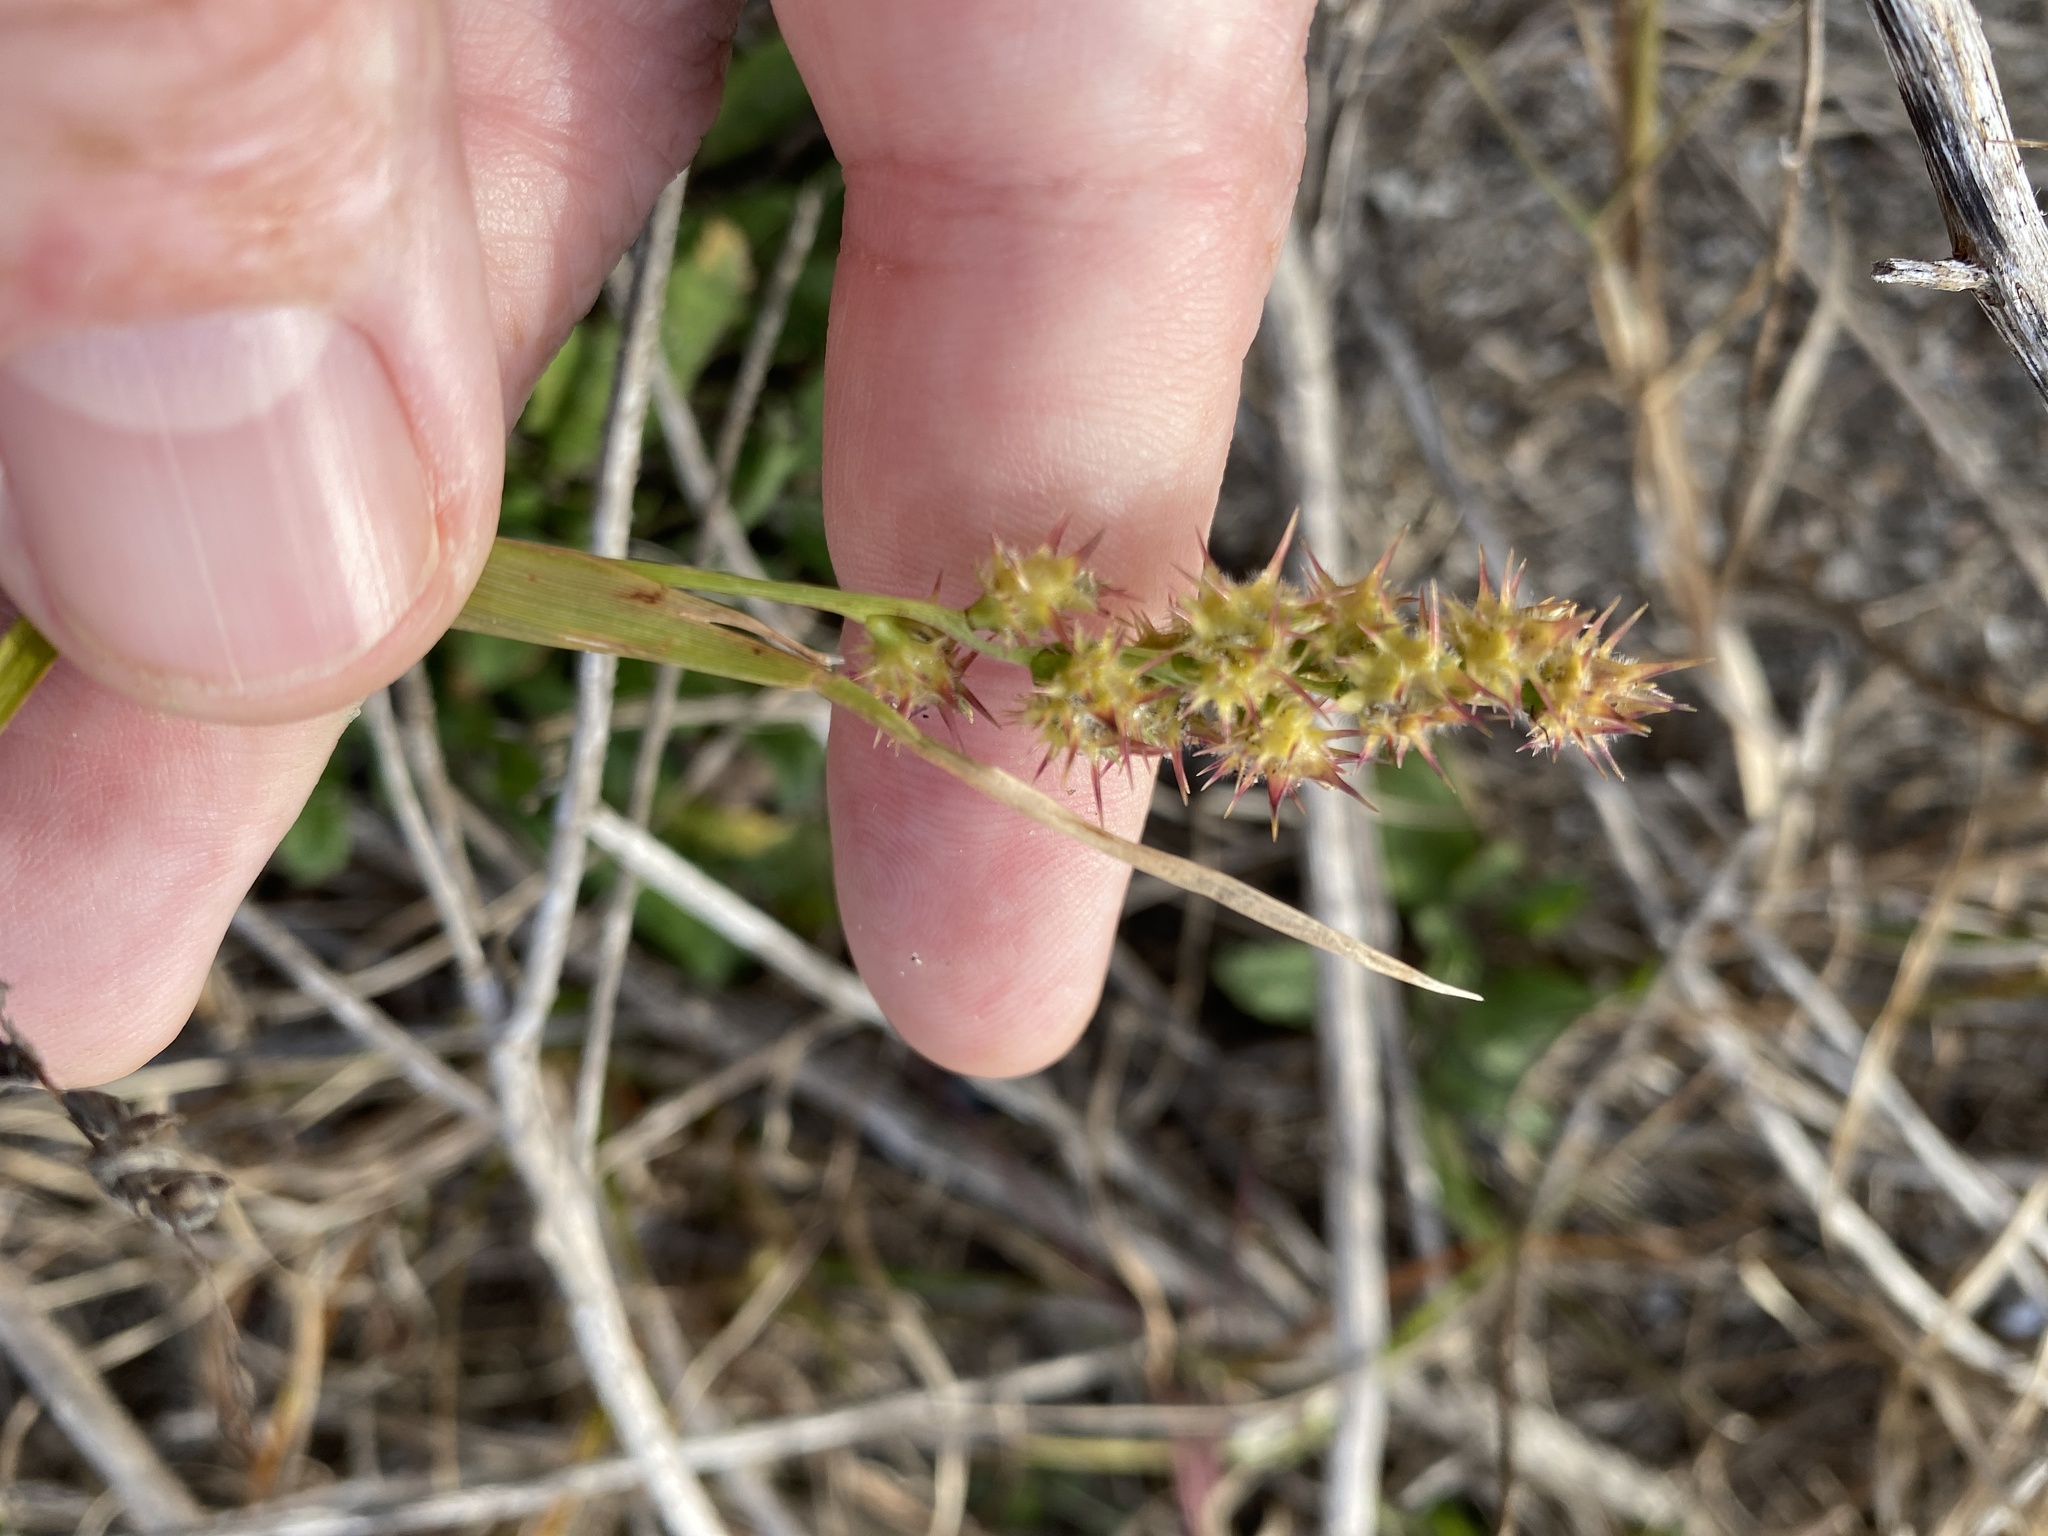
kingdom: Plantae
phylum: Tracheophyta
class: Liliopsida
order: Poales
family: Poaceae
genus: Cenchrus
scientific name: Cenchrus echinatus
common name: Southern sandbur
